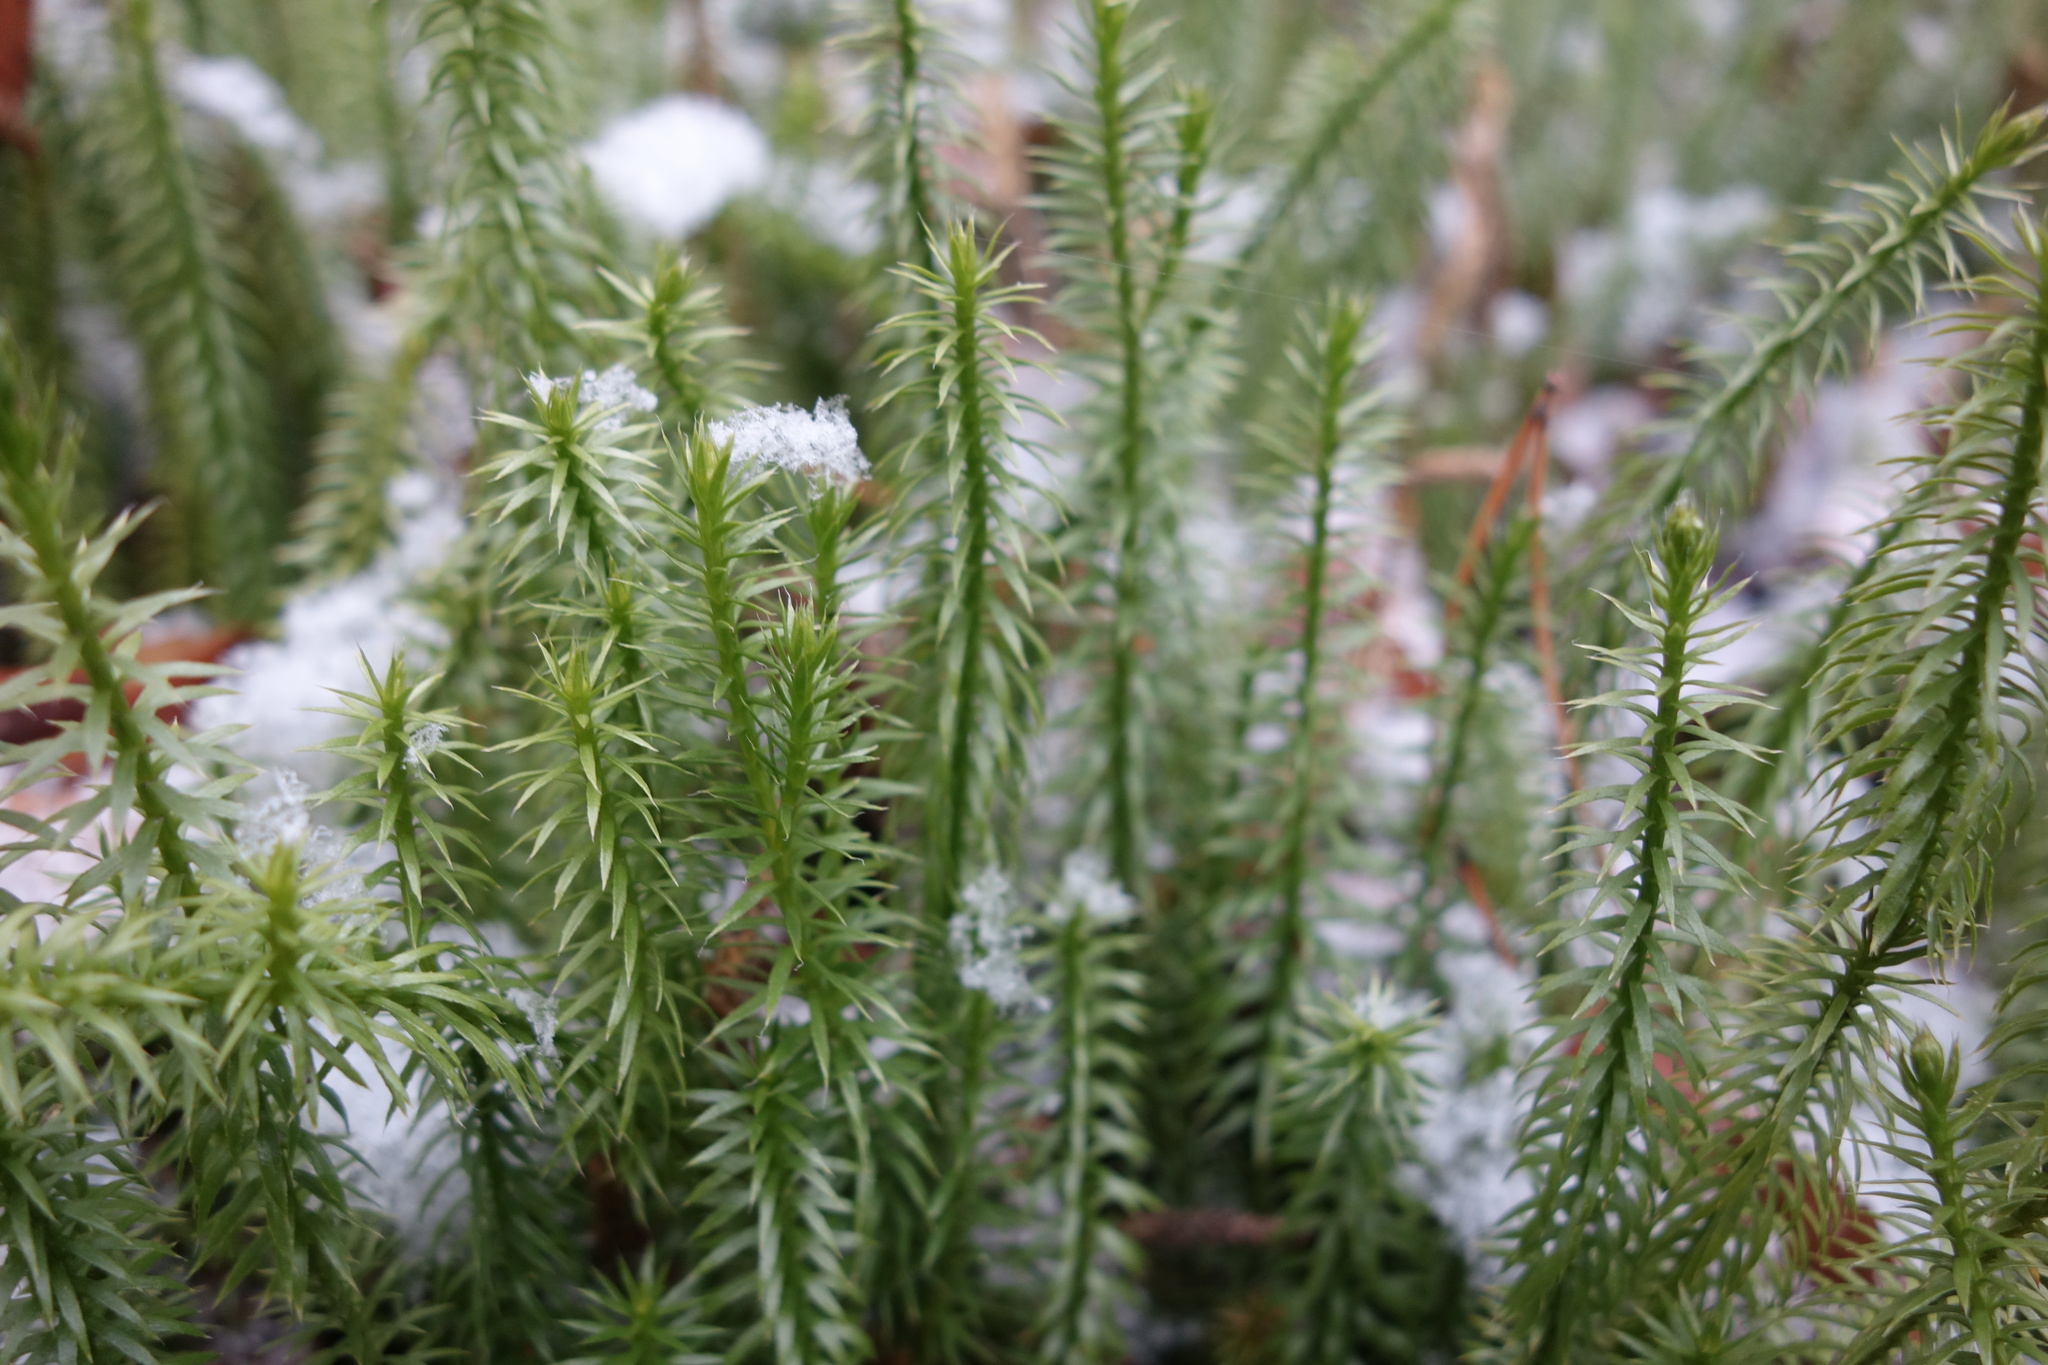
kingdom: Plantae
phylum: Tracheophyta
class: Lycopodiopsida
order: Lycopodiales
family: Lycopodiaceae
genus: Spinulum
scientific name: Spinulum annotinum
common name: Interrupted club-moss
